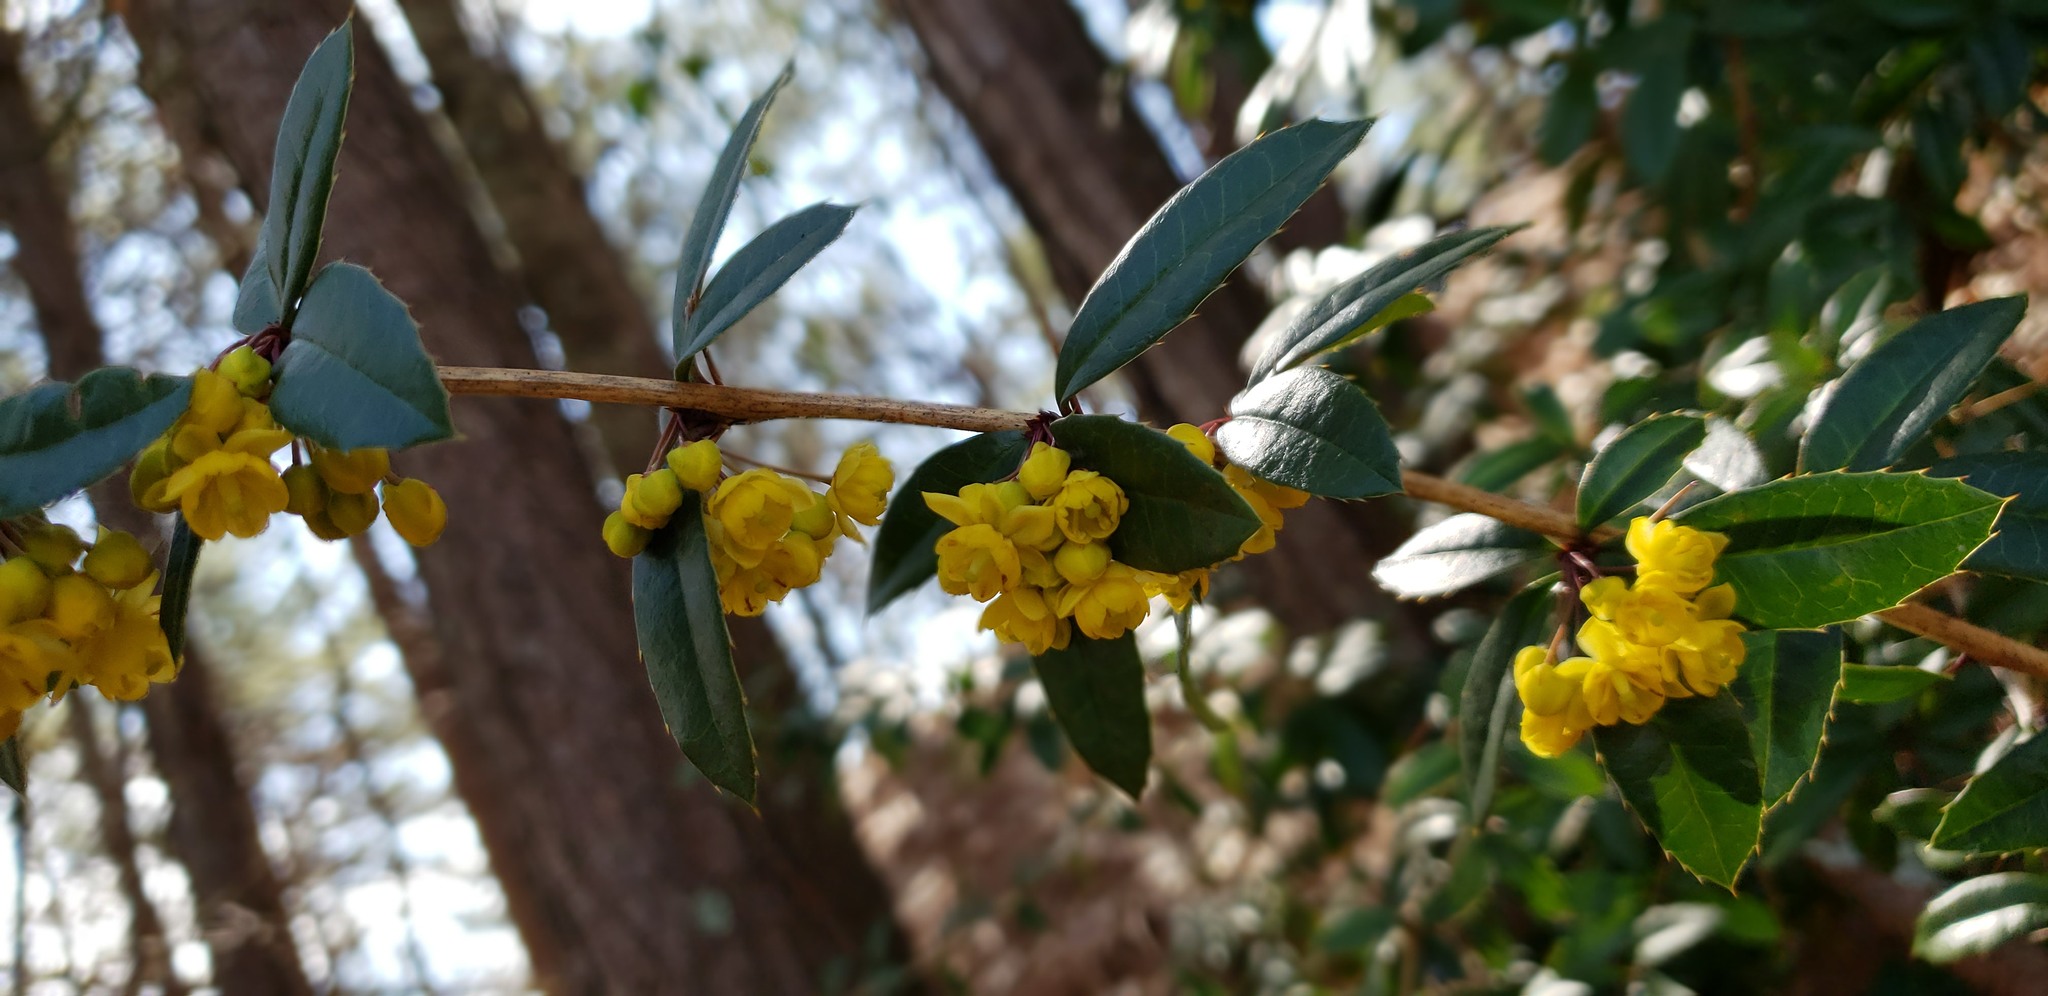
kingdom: Plantae
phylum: Tracheophyta
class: Magnoliopsida
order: Ranunculales
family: Berberidaceae
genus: Berberis
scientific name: Berberis julianae
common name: Wintergreen barberry
